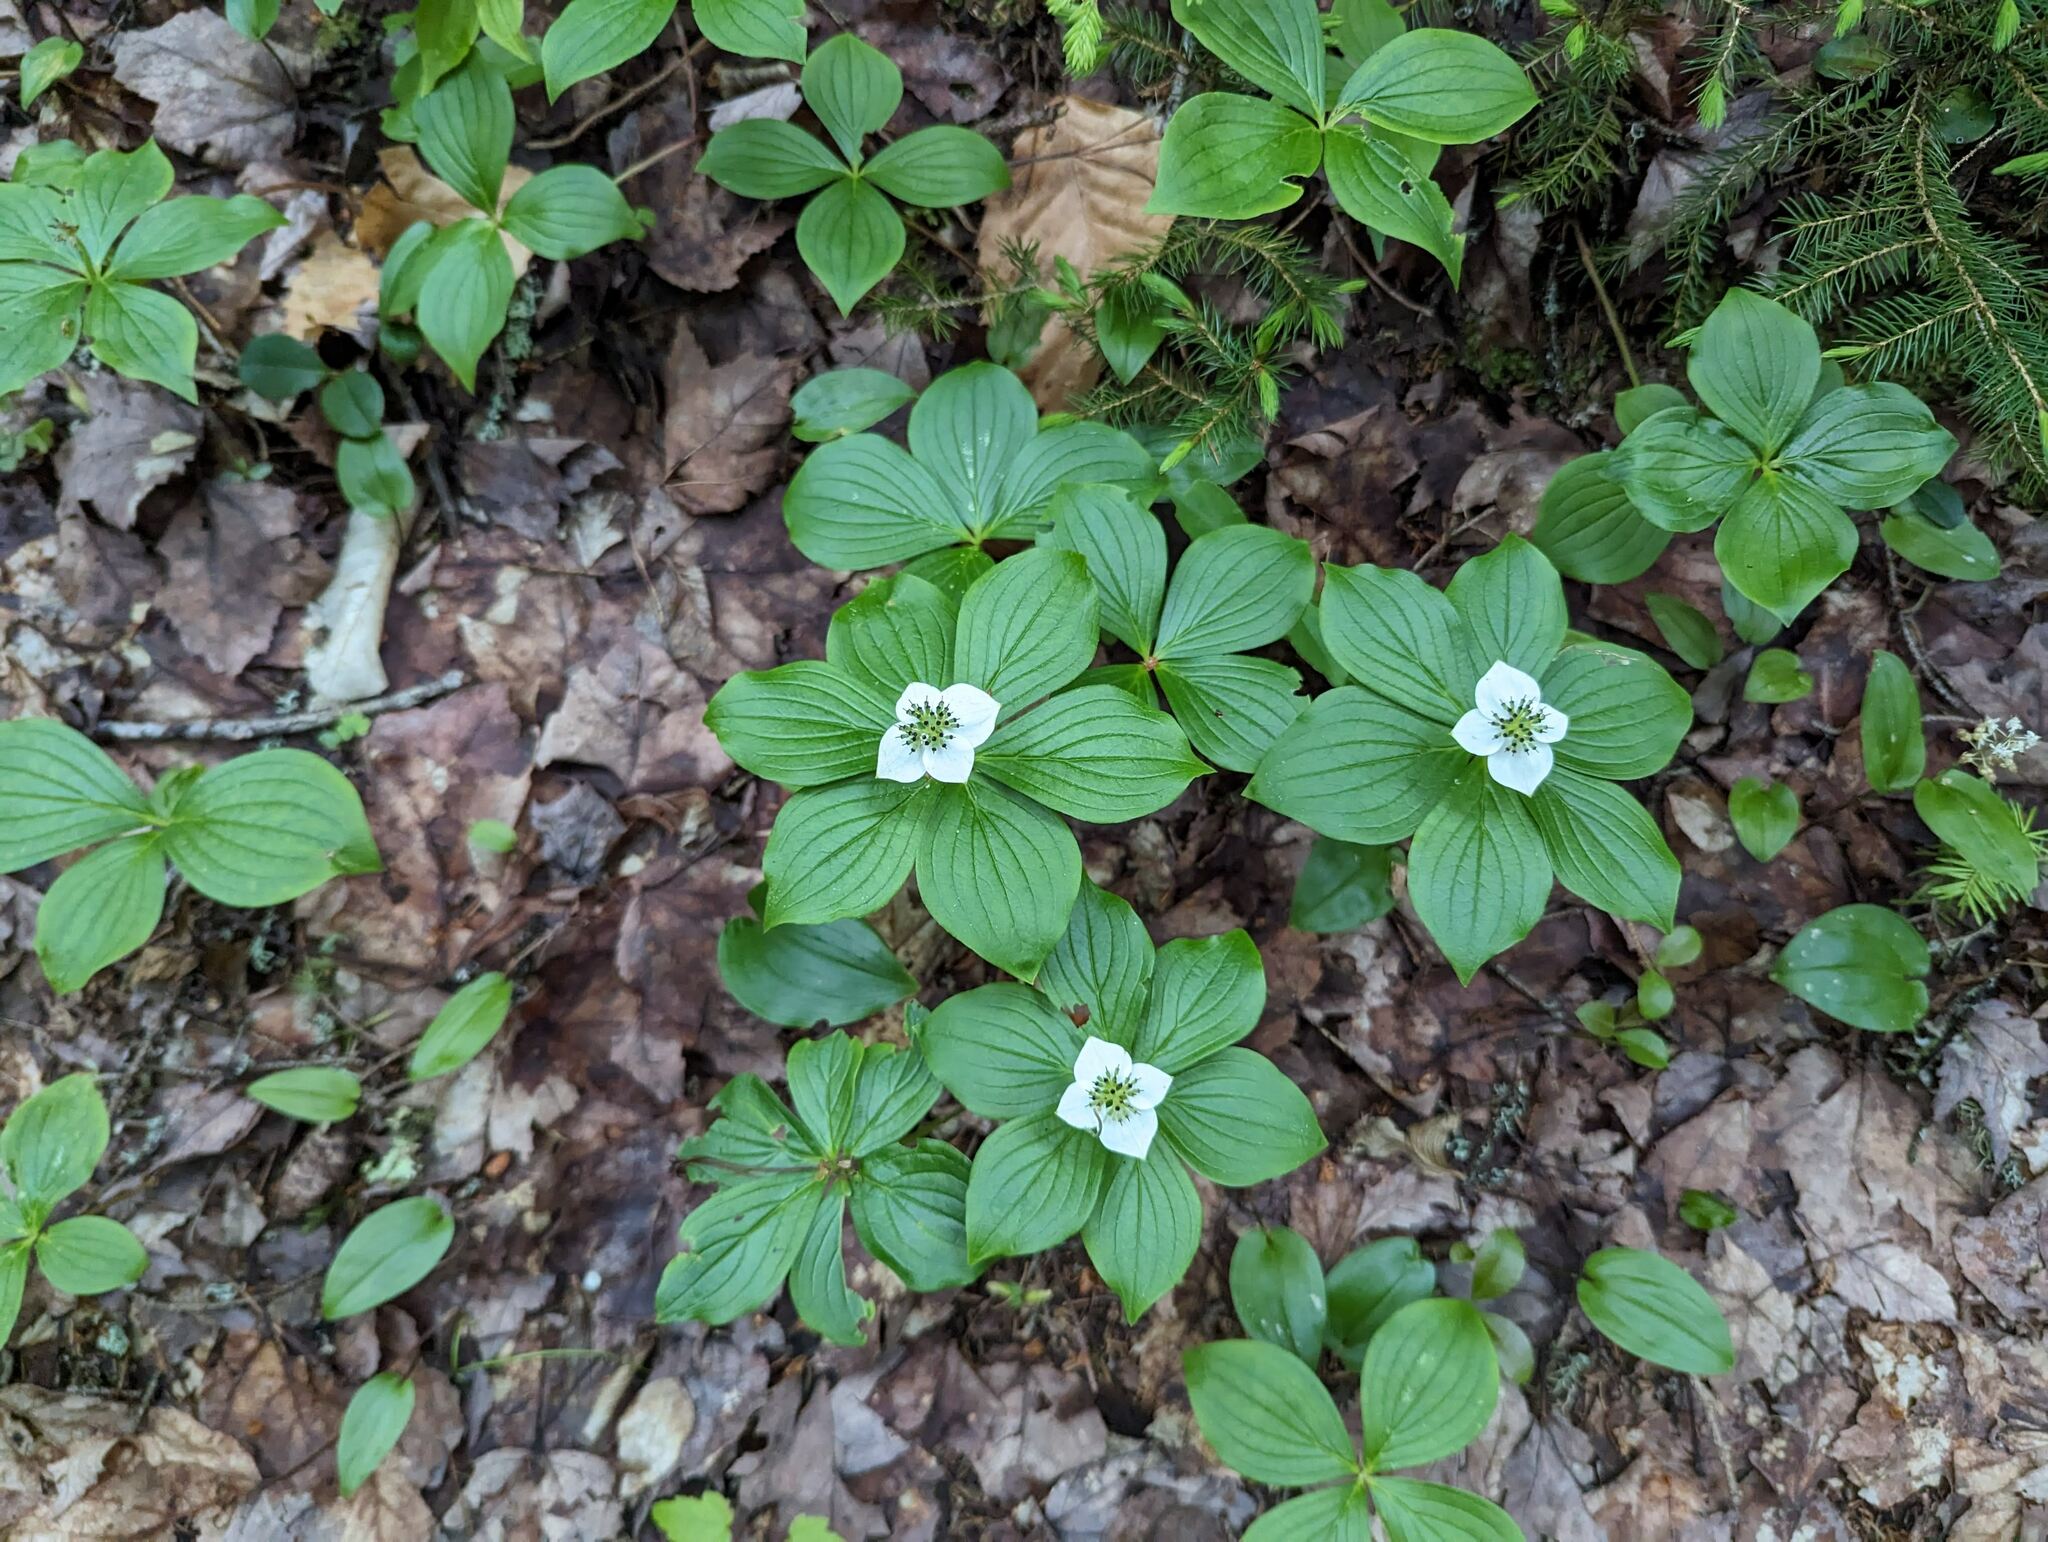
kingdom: Plantae
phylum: Tracheophyta
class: Magnoliopsida
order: Cornales
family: Cornaceae
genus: Cornus
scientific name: Cornus canadensis
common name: Creeping dogwood
